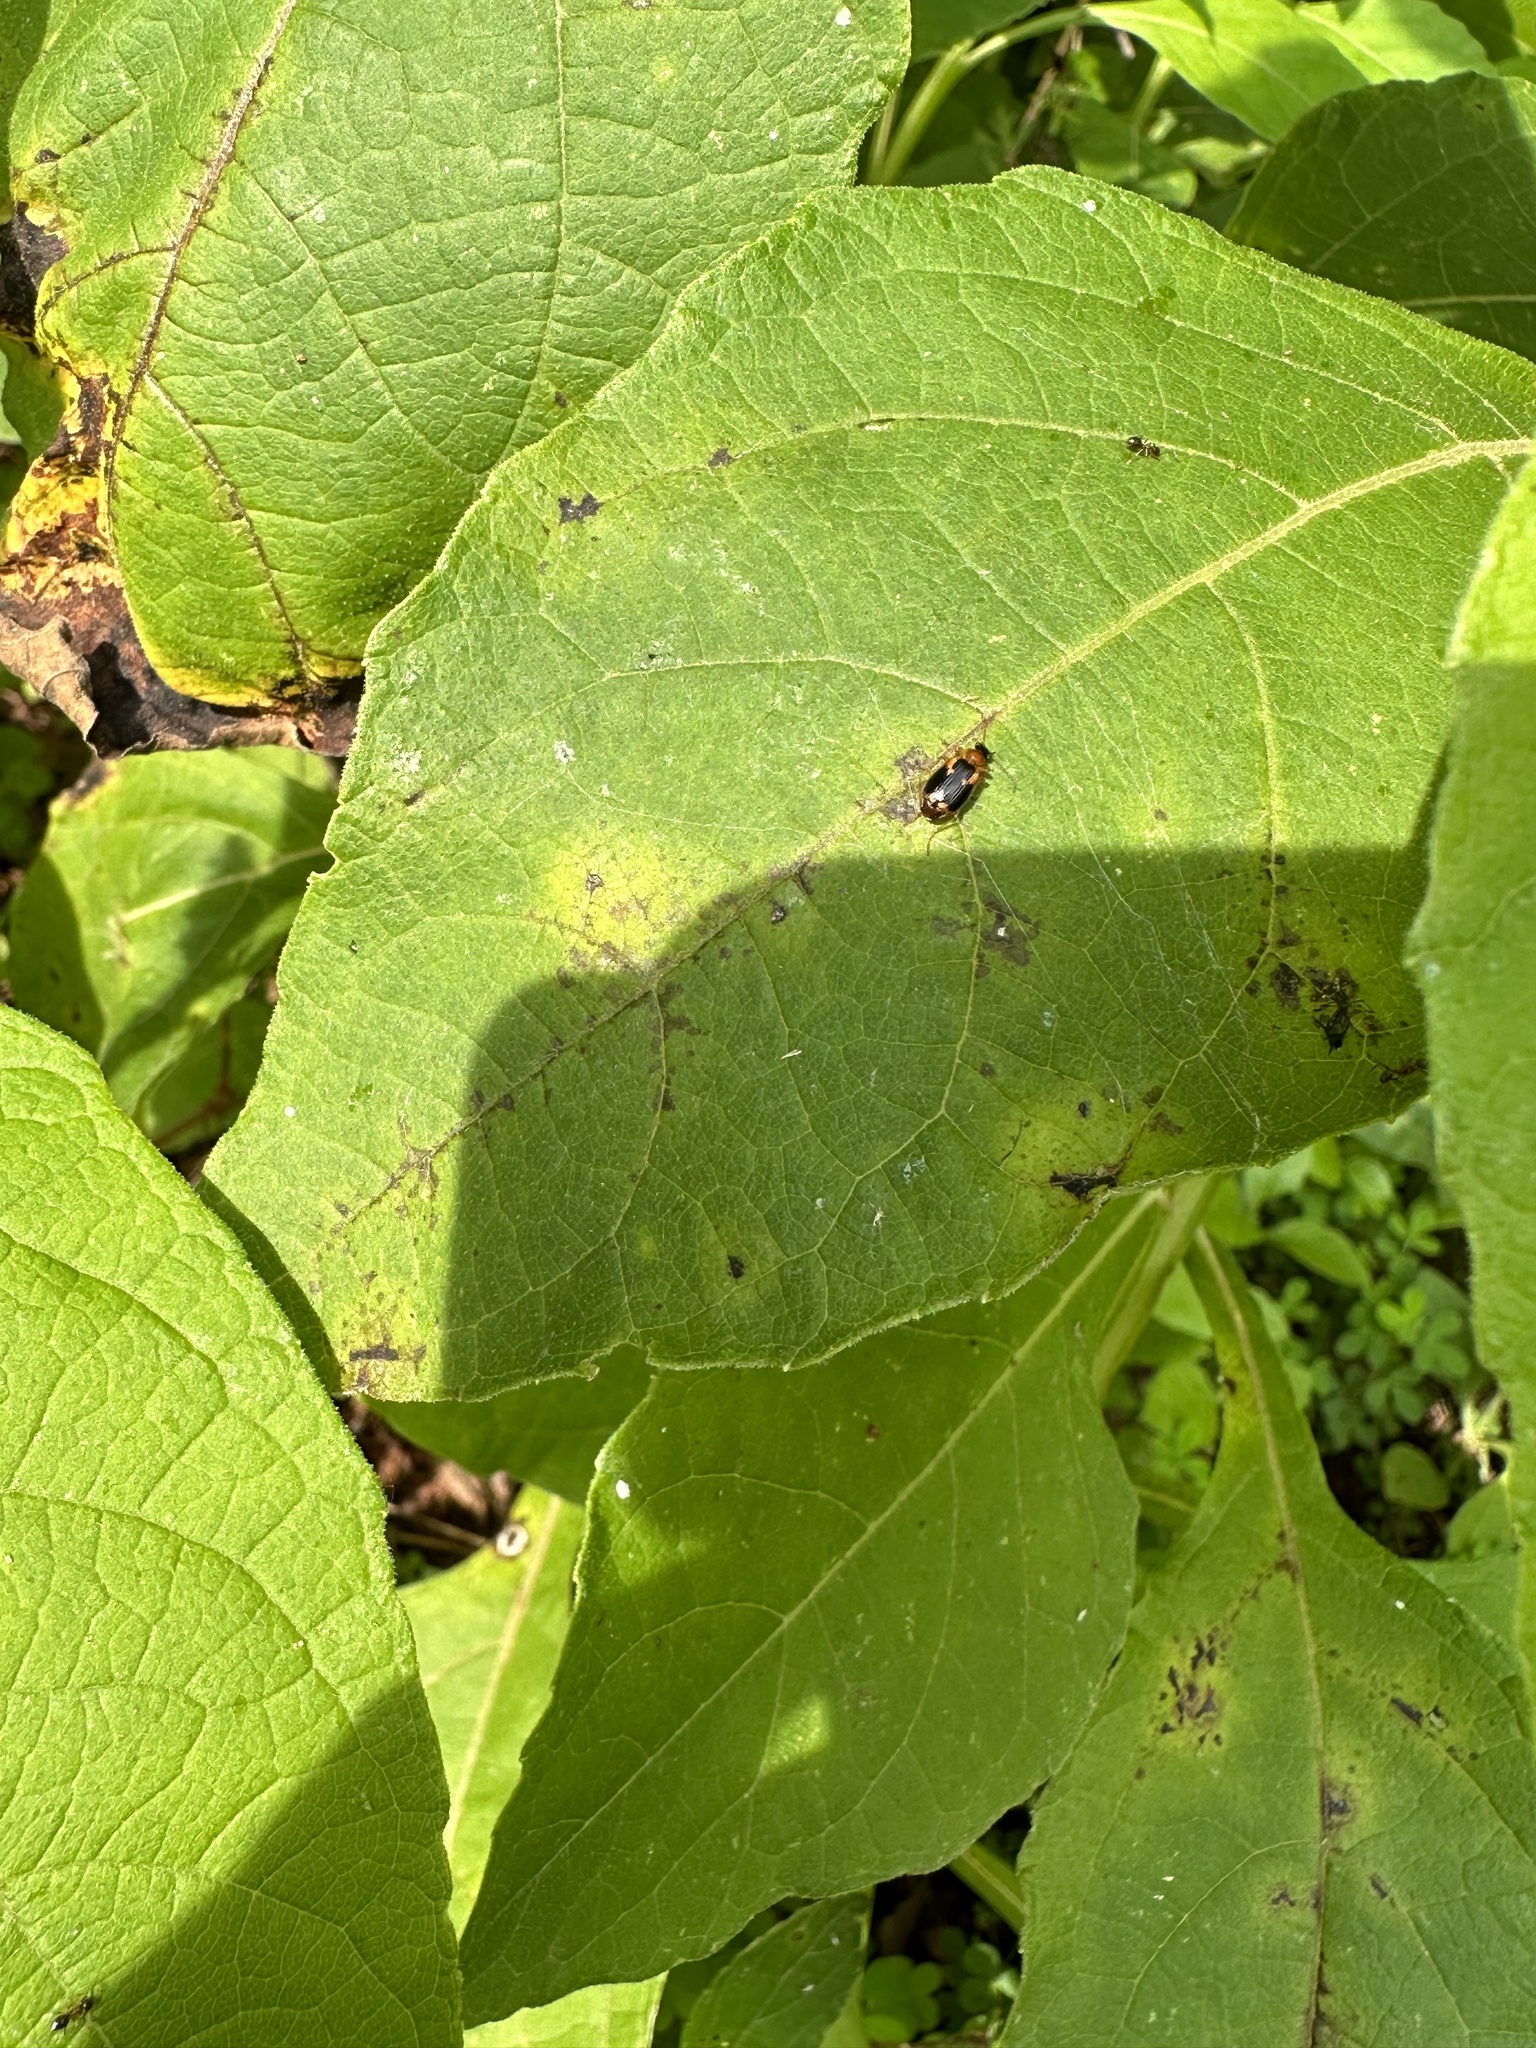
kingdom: Animalia
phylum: Arthropoda
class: Insecta
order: Coleoptera
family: Carabidae
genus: Lebia
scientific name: Lebia analis
